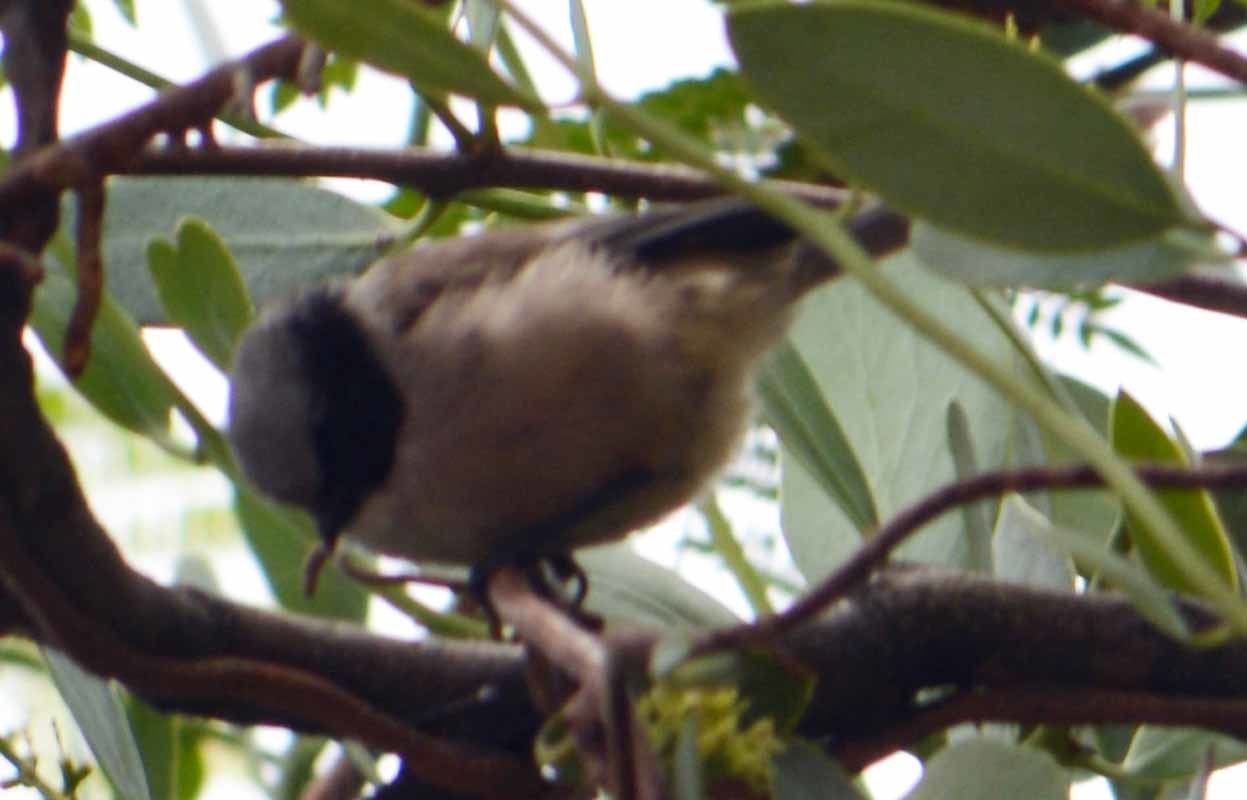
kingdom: Animalia
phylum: Chordata
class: Aves
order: Passeriformes
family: Aegithalidae
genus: Psaltriparus
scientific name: Psaltriparus minimus
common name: American bushtit
